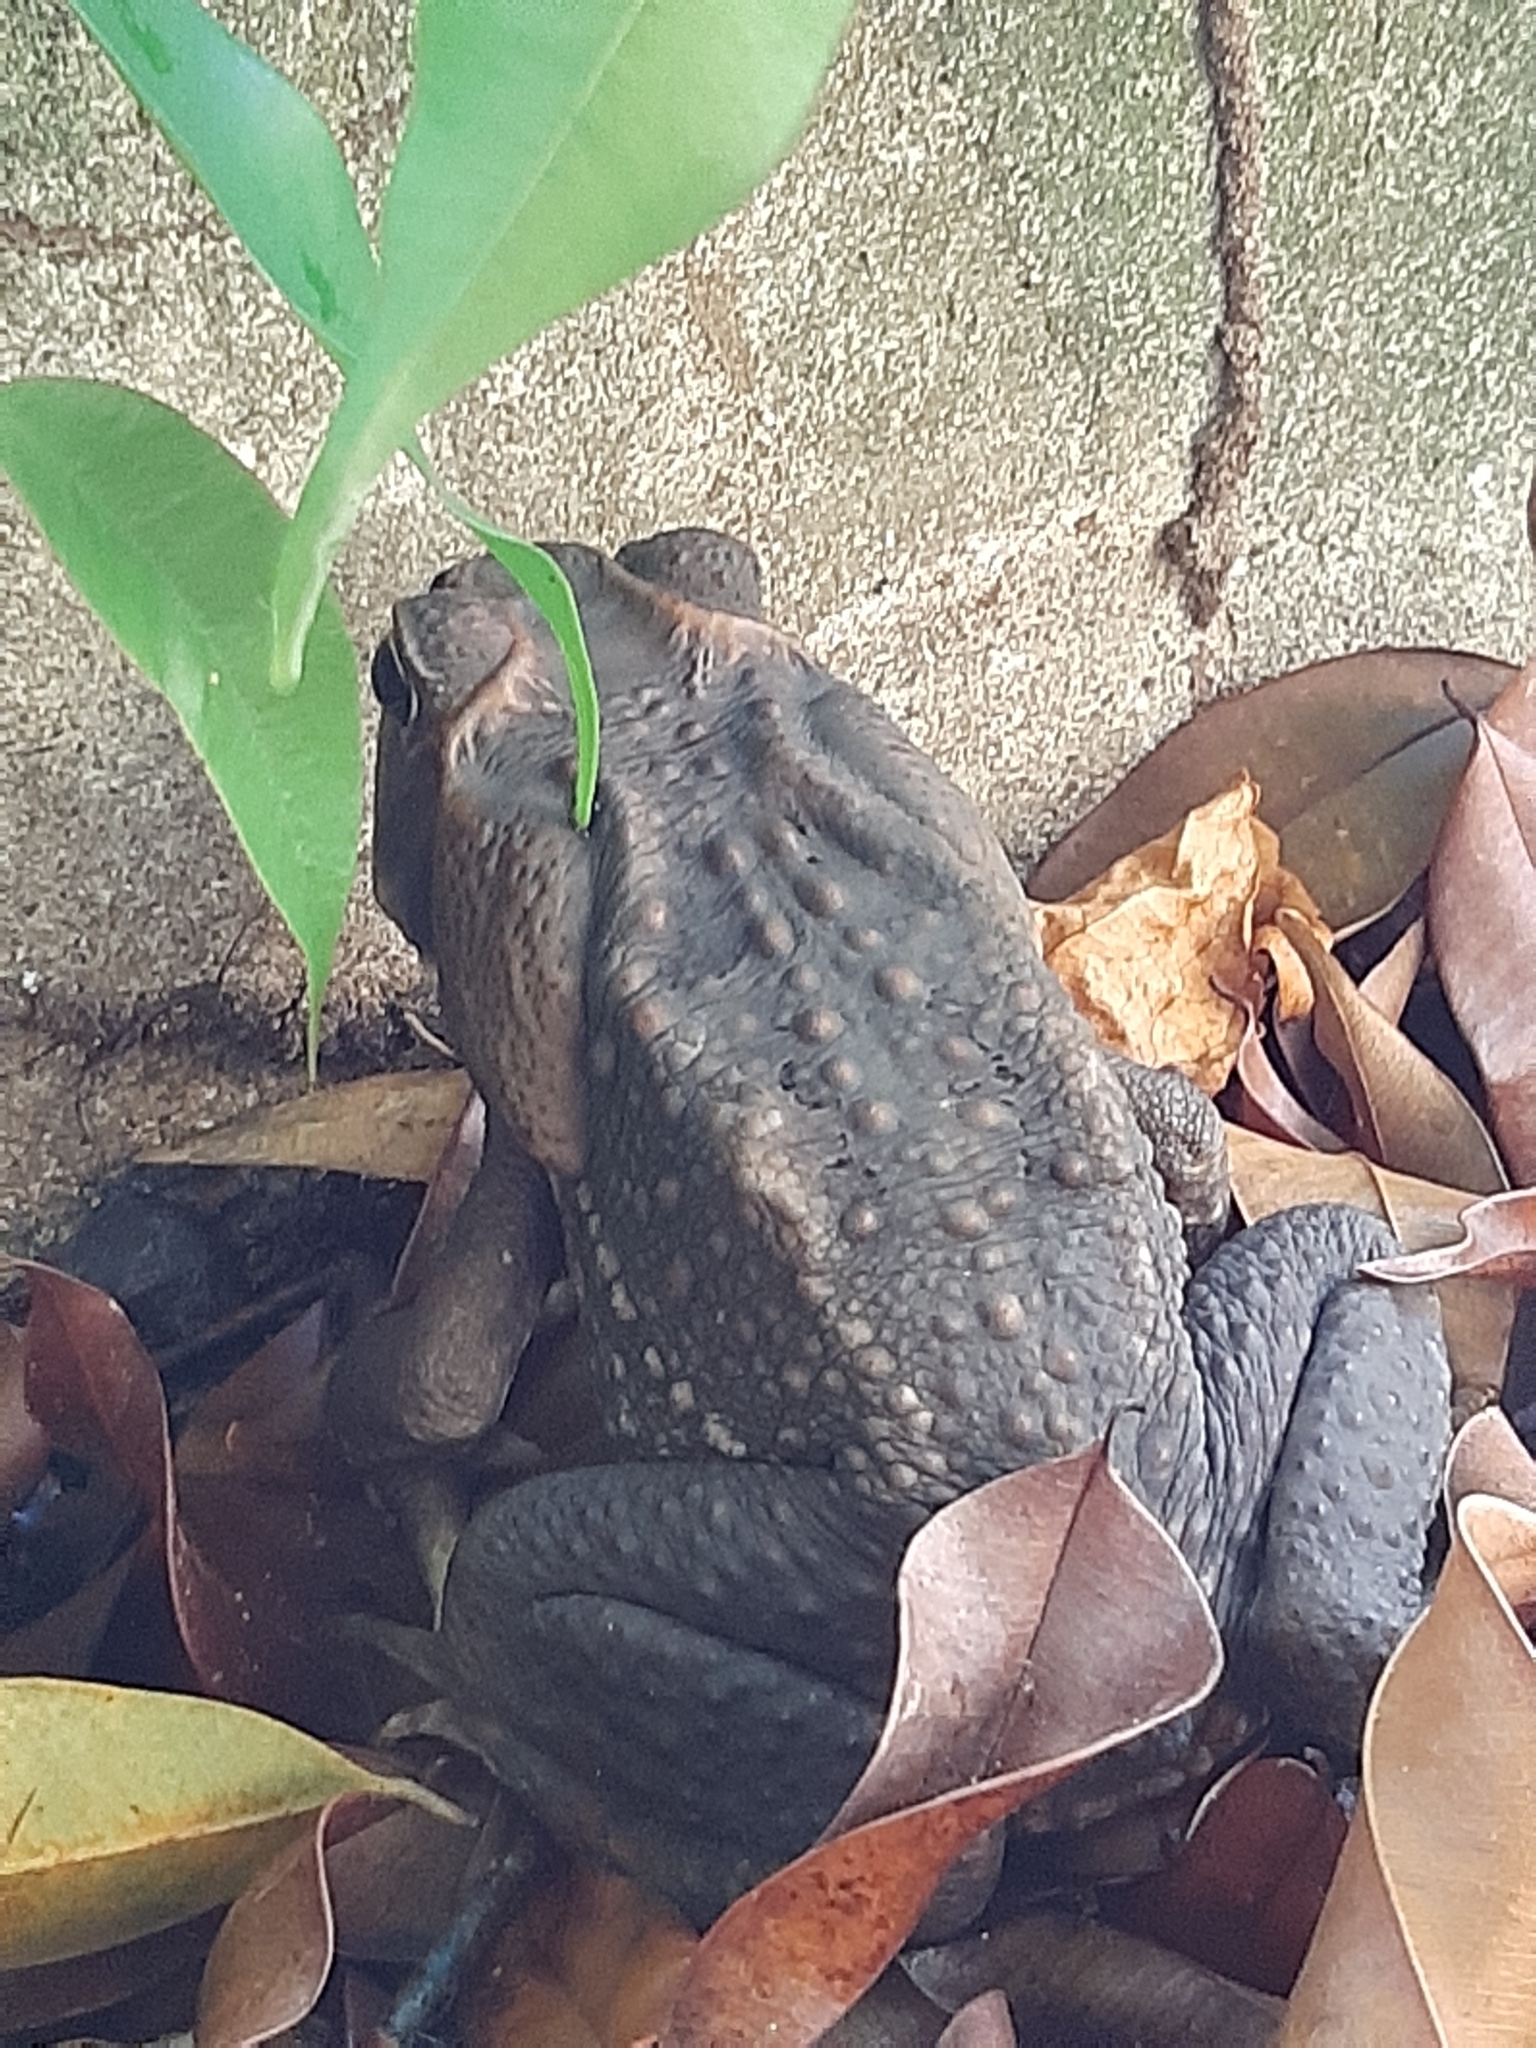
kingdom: Animalia
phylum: Chordata
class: Amphibia
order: Anura
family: Bufonidae
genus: Rhinella
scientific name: Rhinella horribilis
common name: Mesoamerican cane toad
